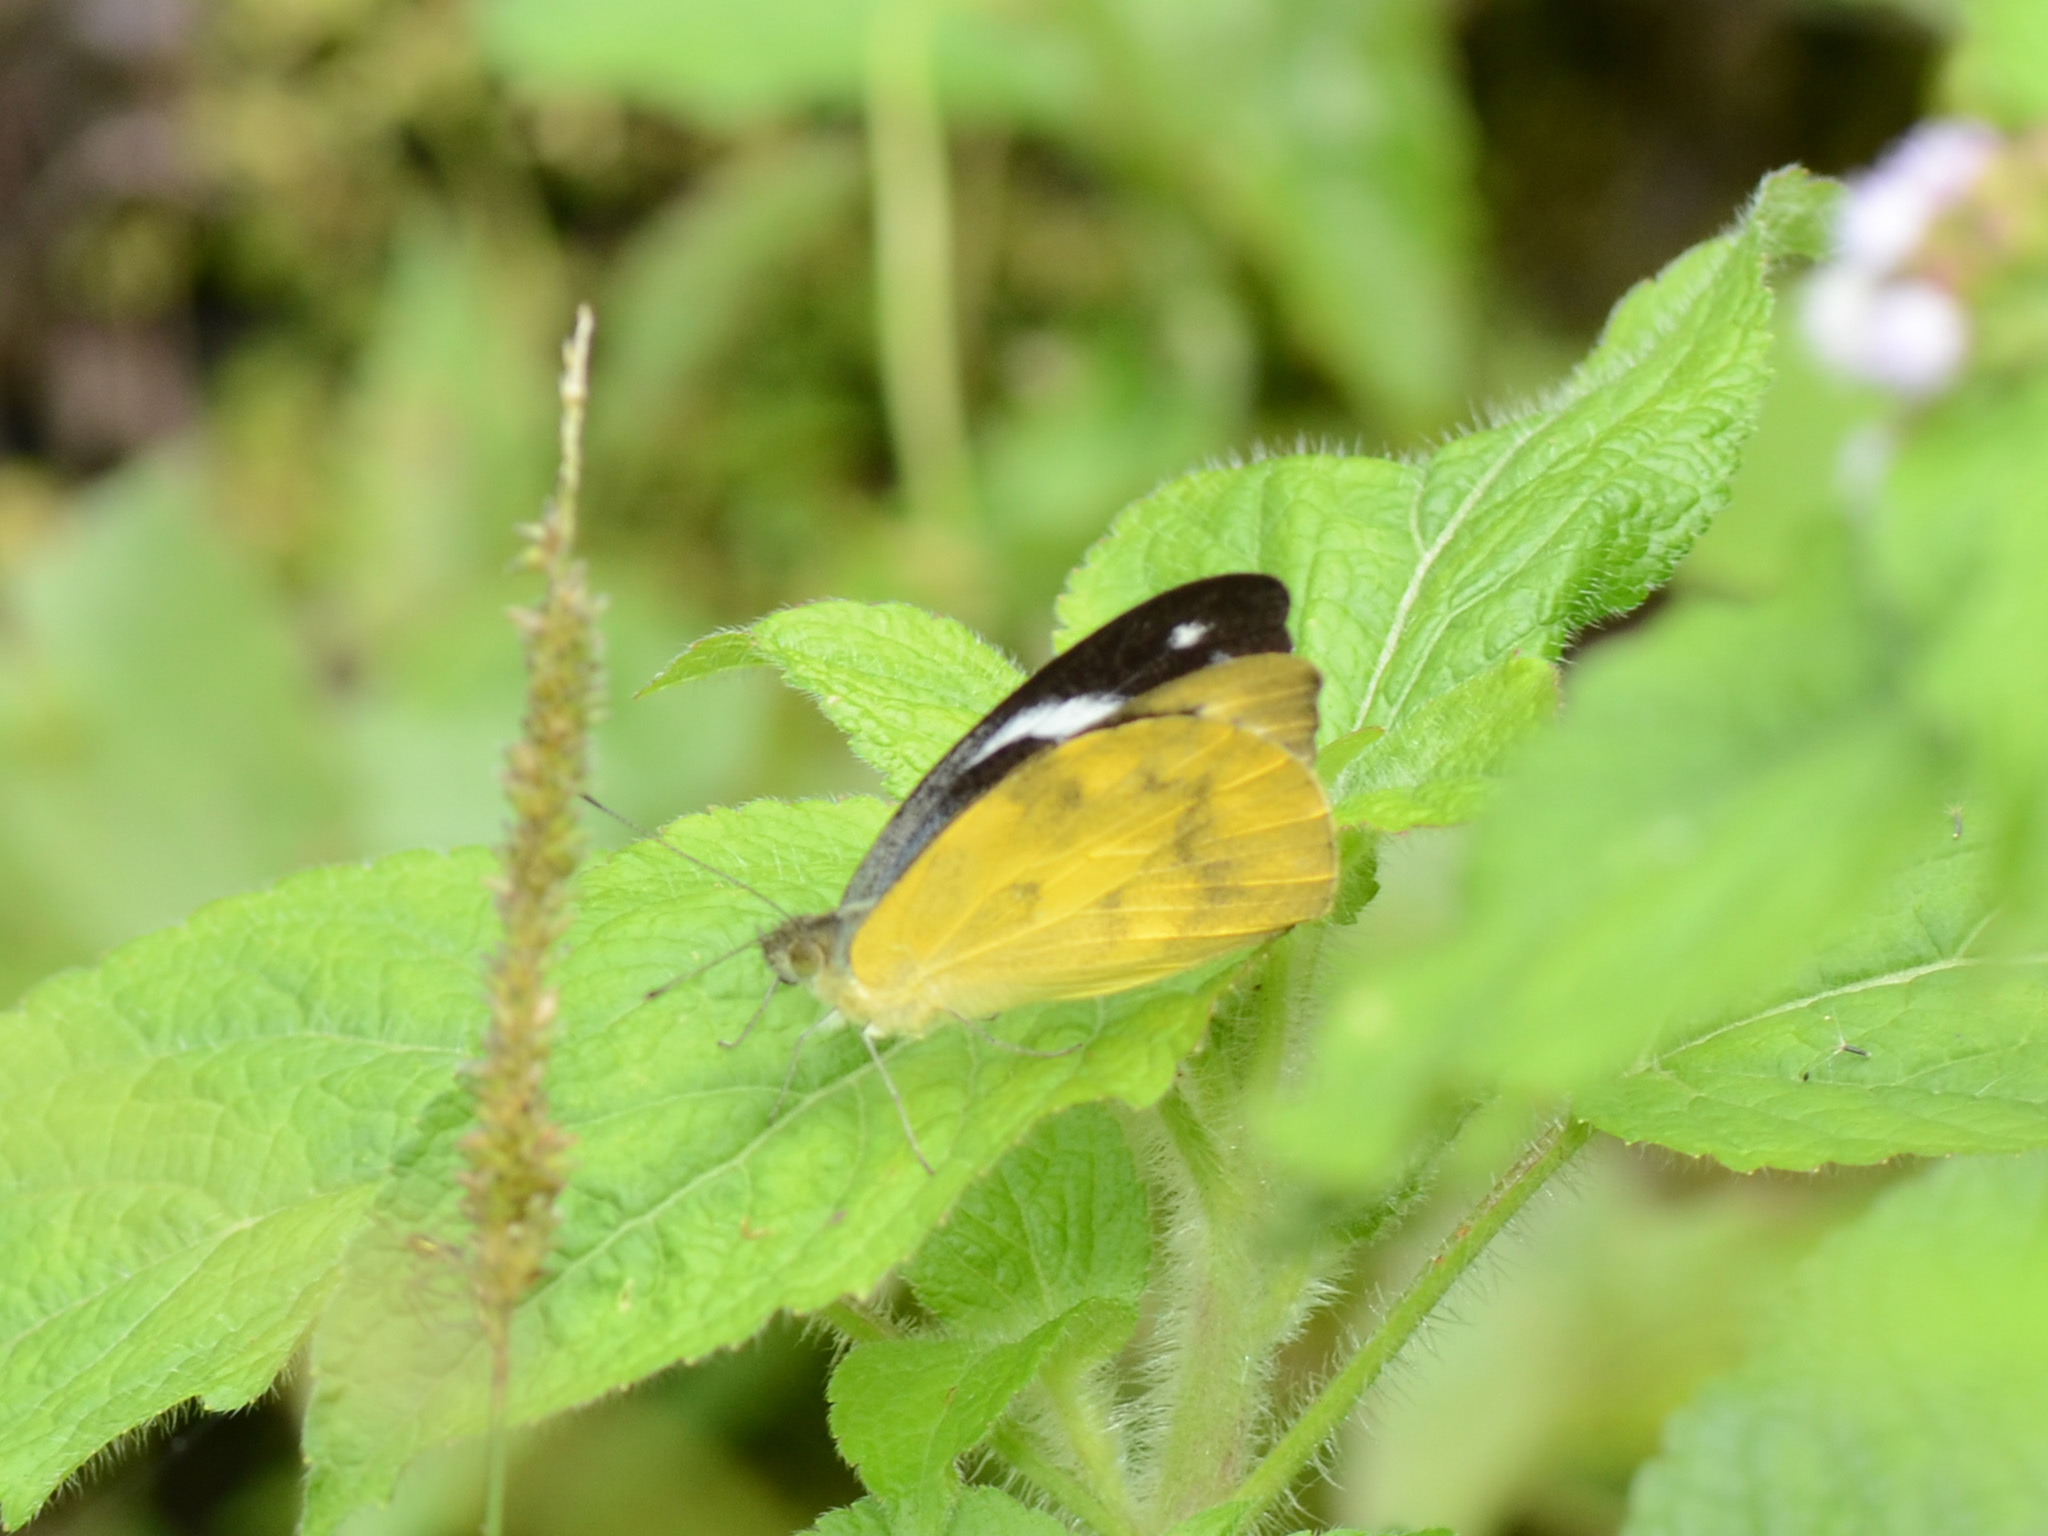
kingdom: Animalia
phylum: Arthropoda
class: Insecta
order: Lepidoptera
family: Pieridae
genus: Appias
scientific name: Appias pandione
